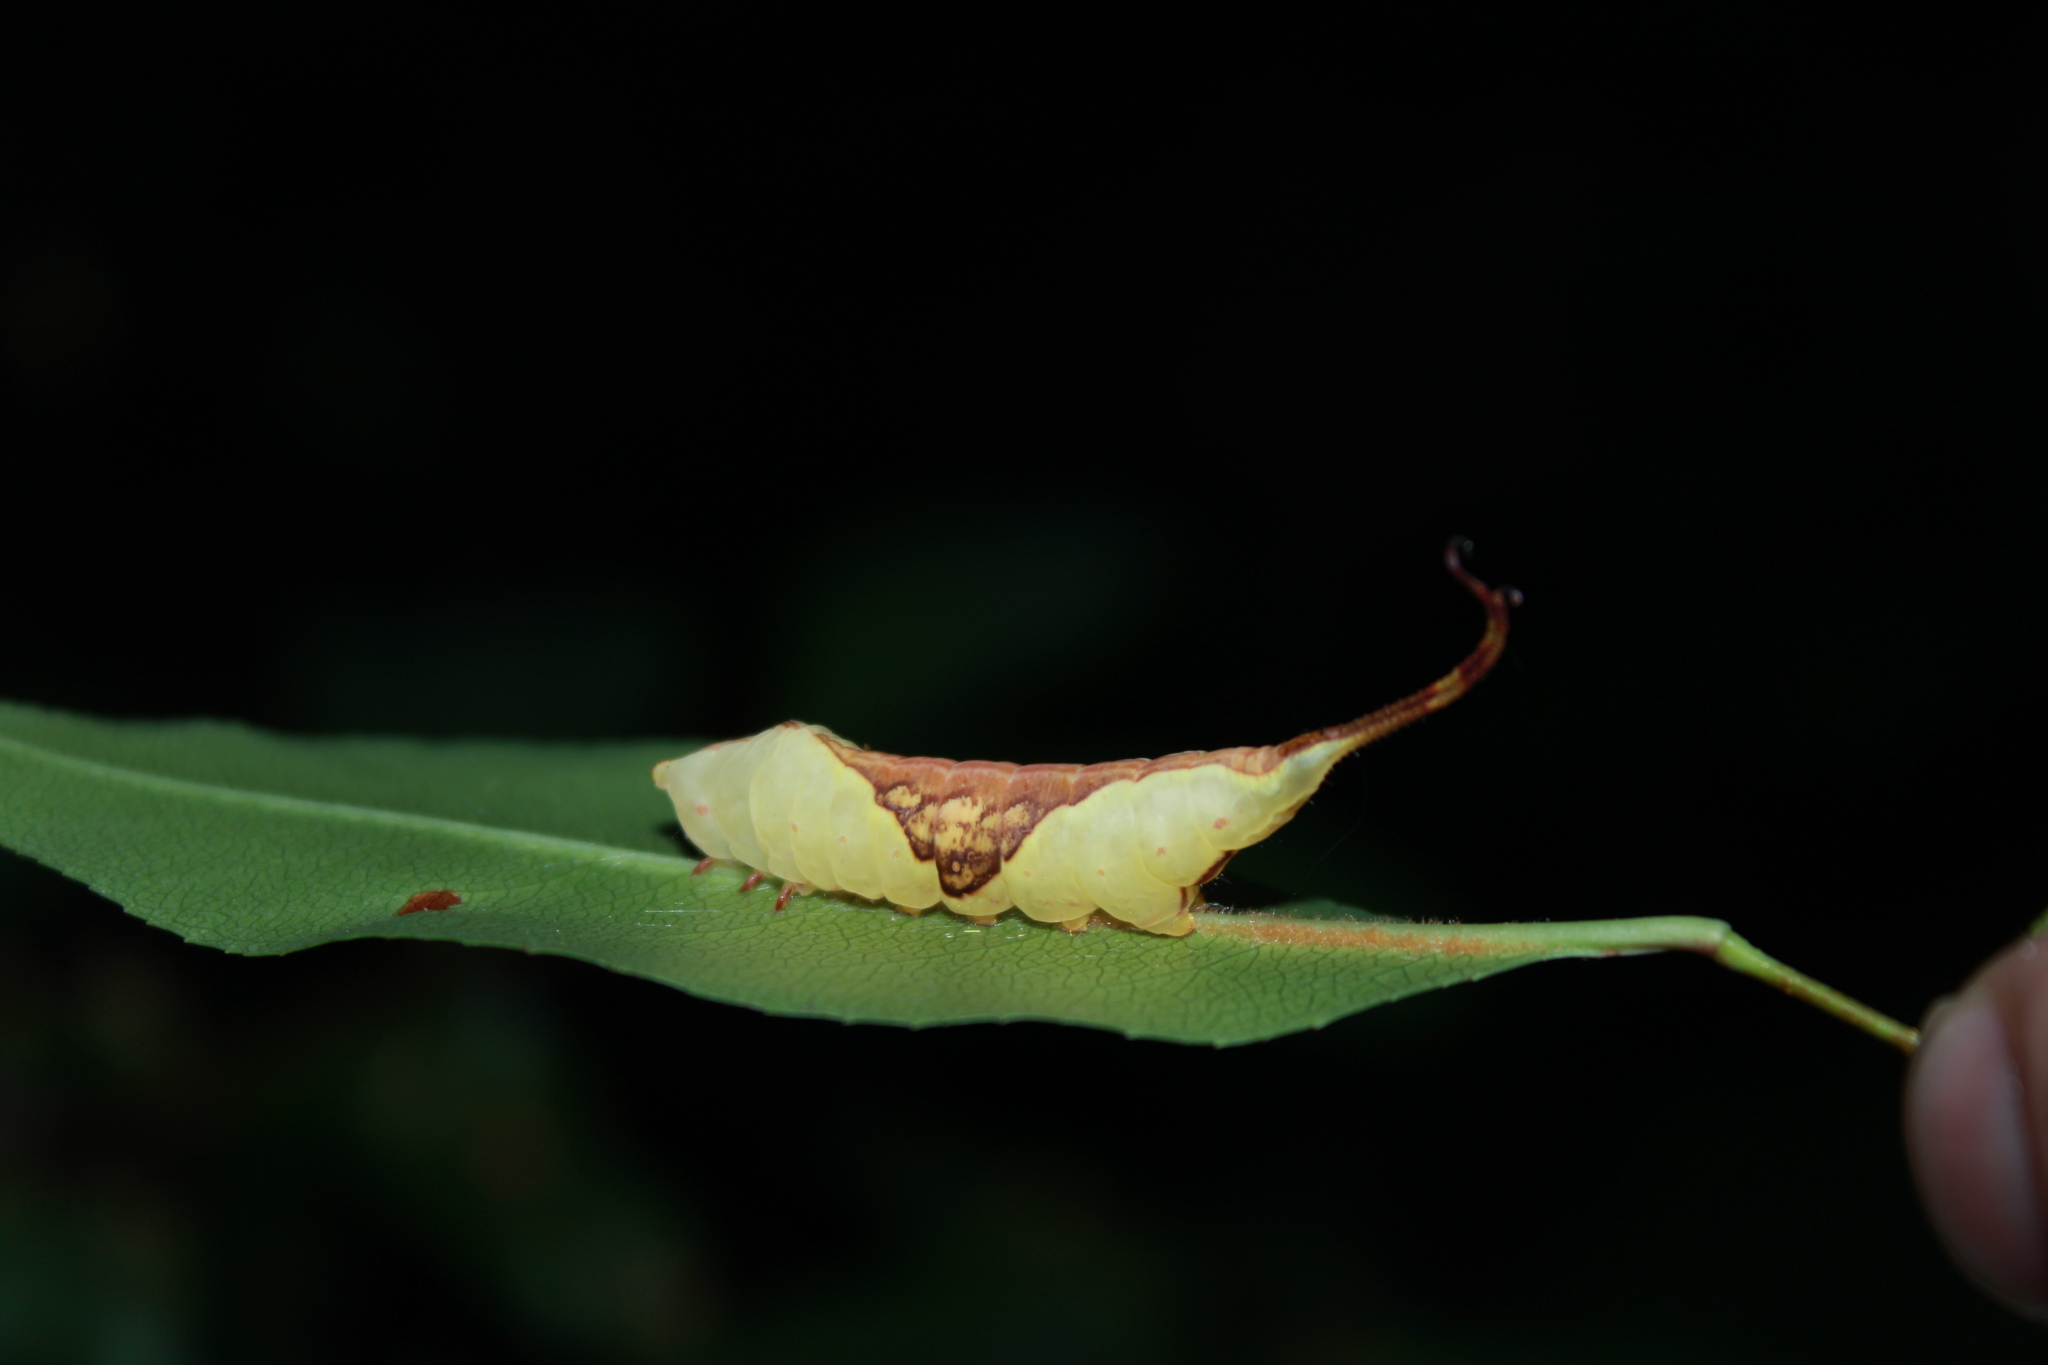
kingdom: Animalia
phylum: Arthropoda
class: Insecta
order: Lepidoptera
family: Notodontidae
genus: Furcula
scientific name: Furcula borealis
